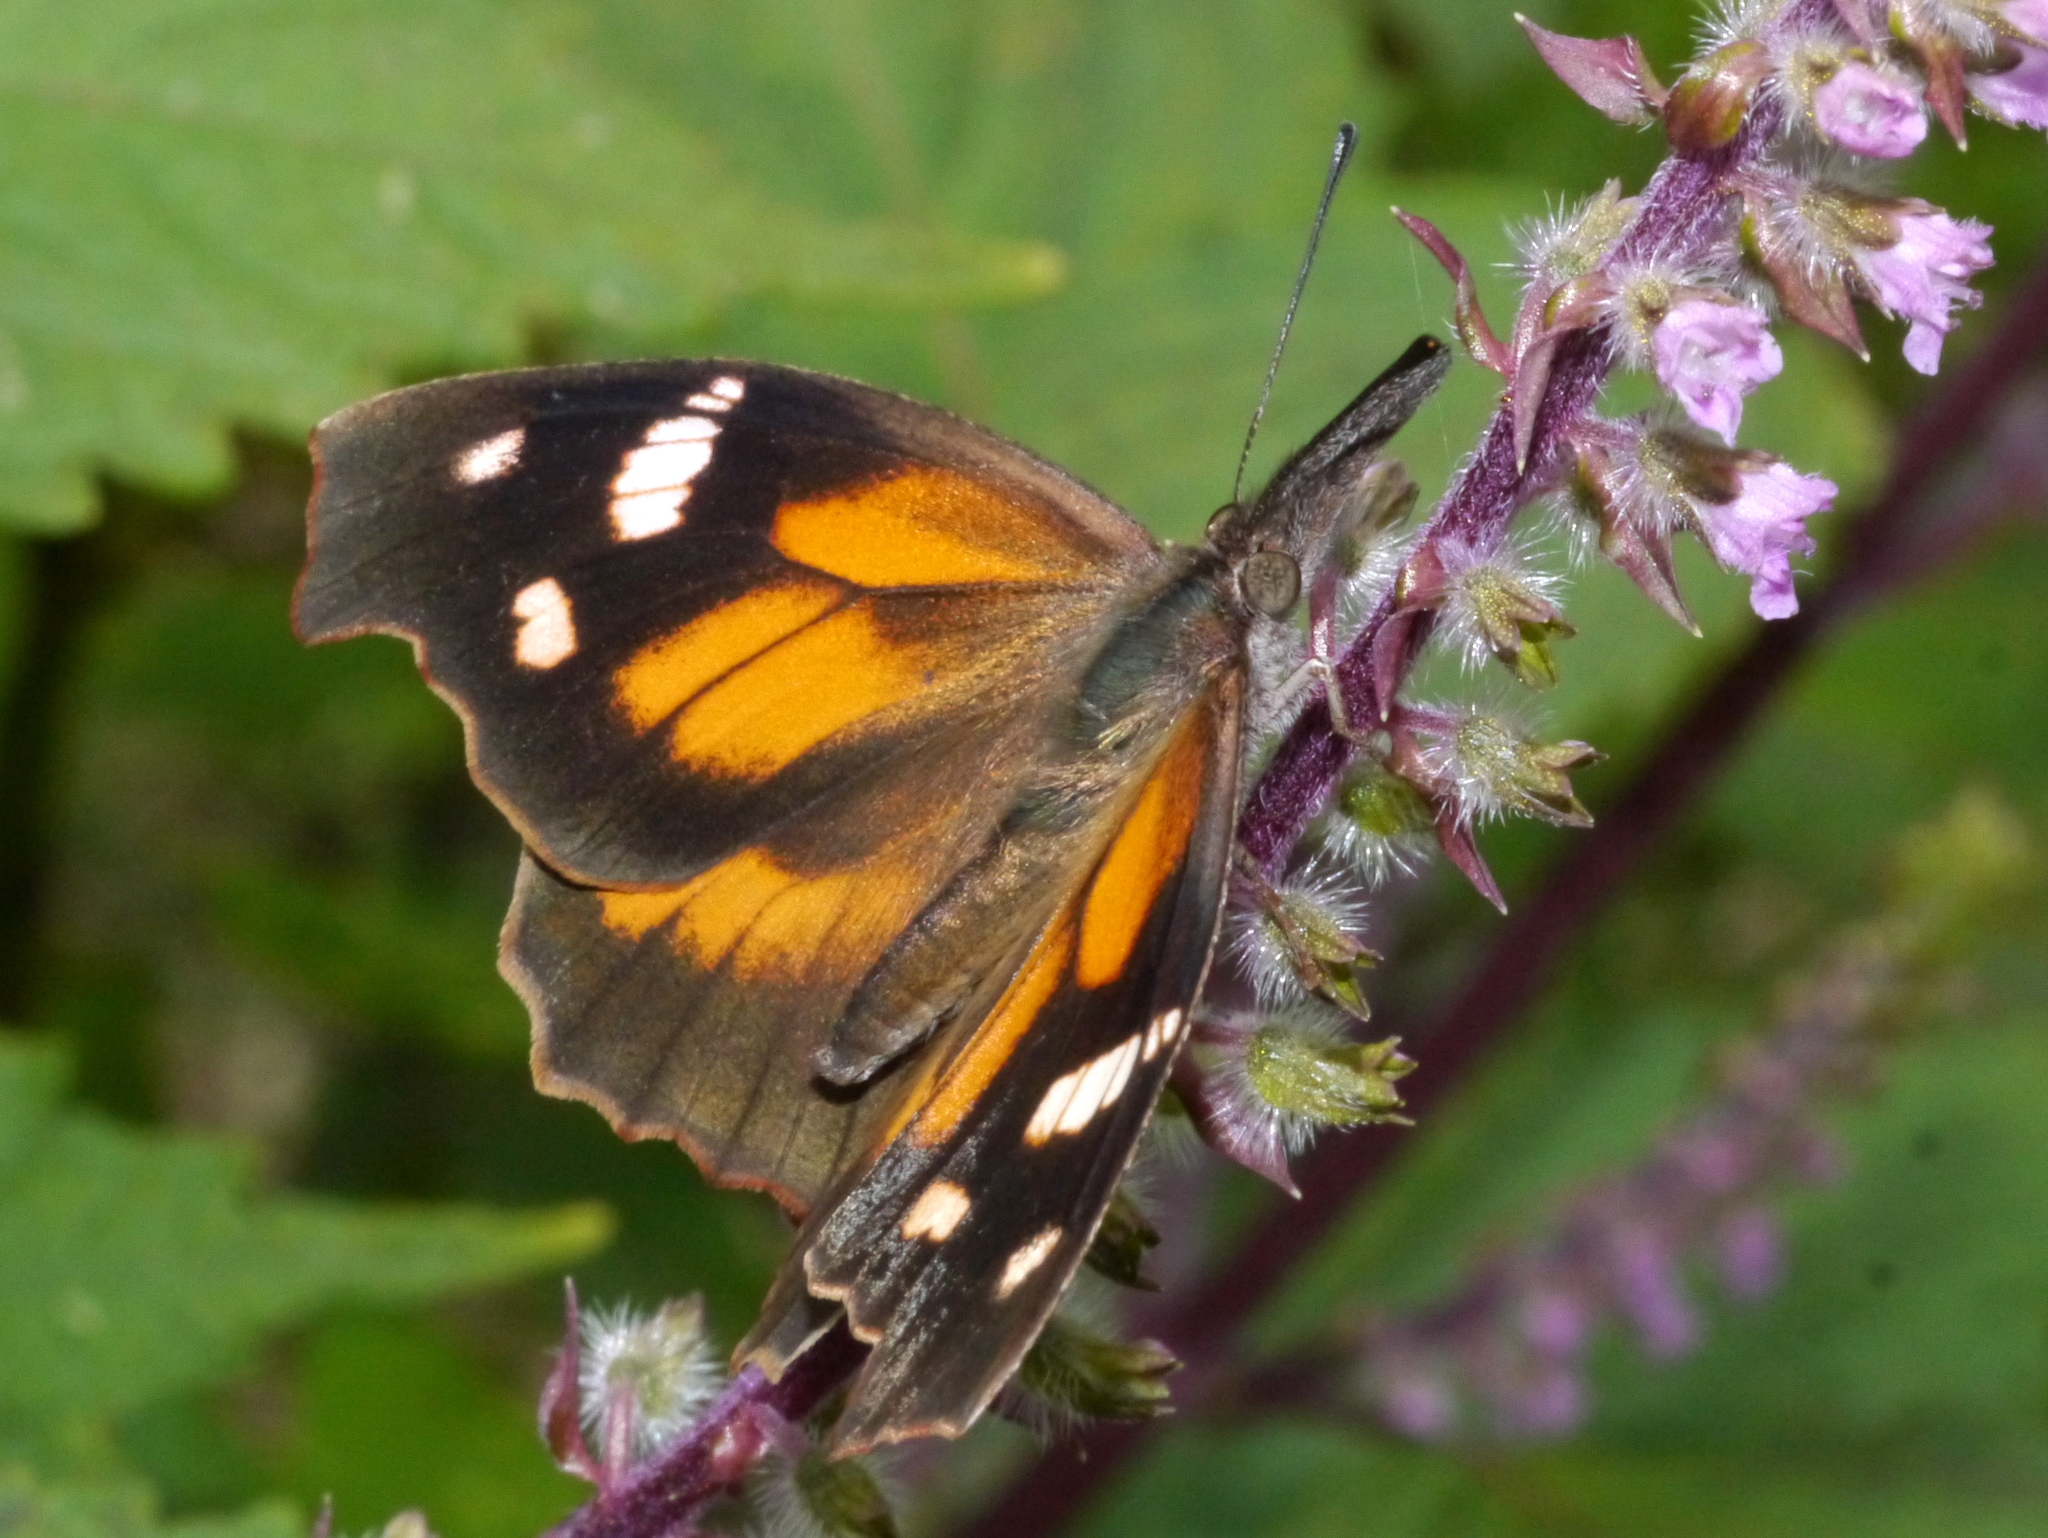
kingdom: Animalia
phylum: Arthropoda
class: Insecta
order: Lepidoptera
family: Nymphalidae
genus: Libytheana
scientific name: Libytheana carinenta
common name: American snout
